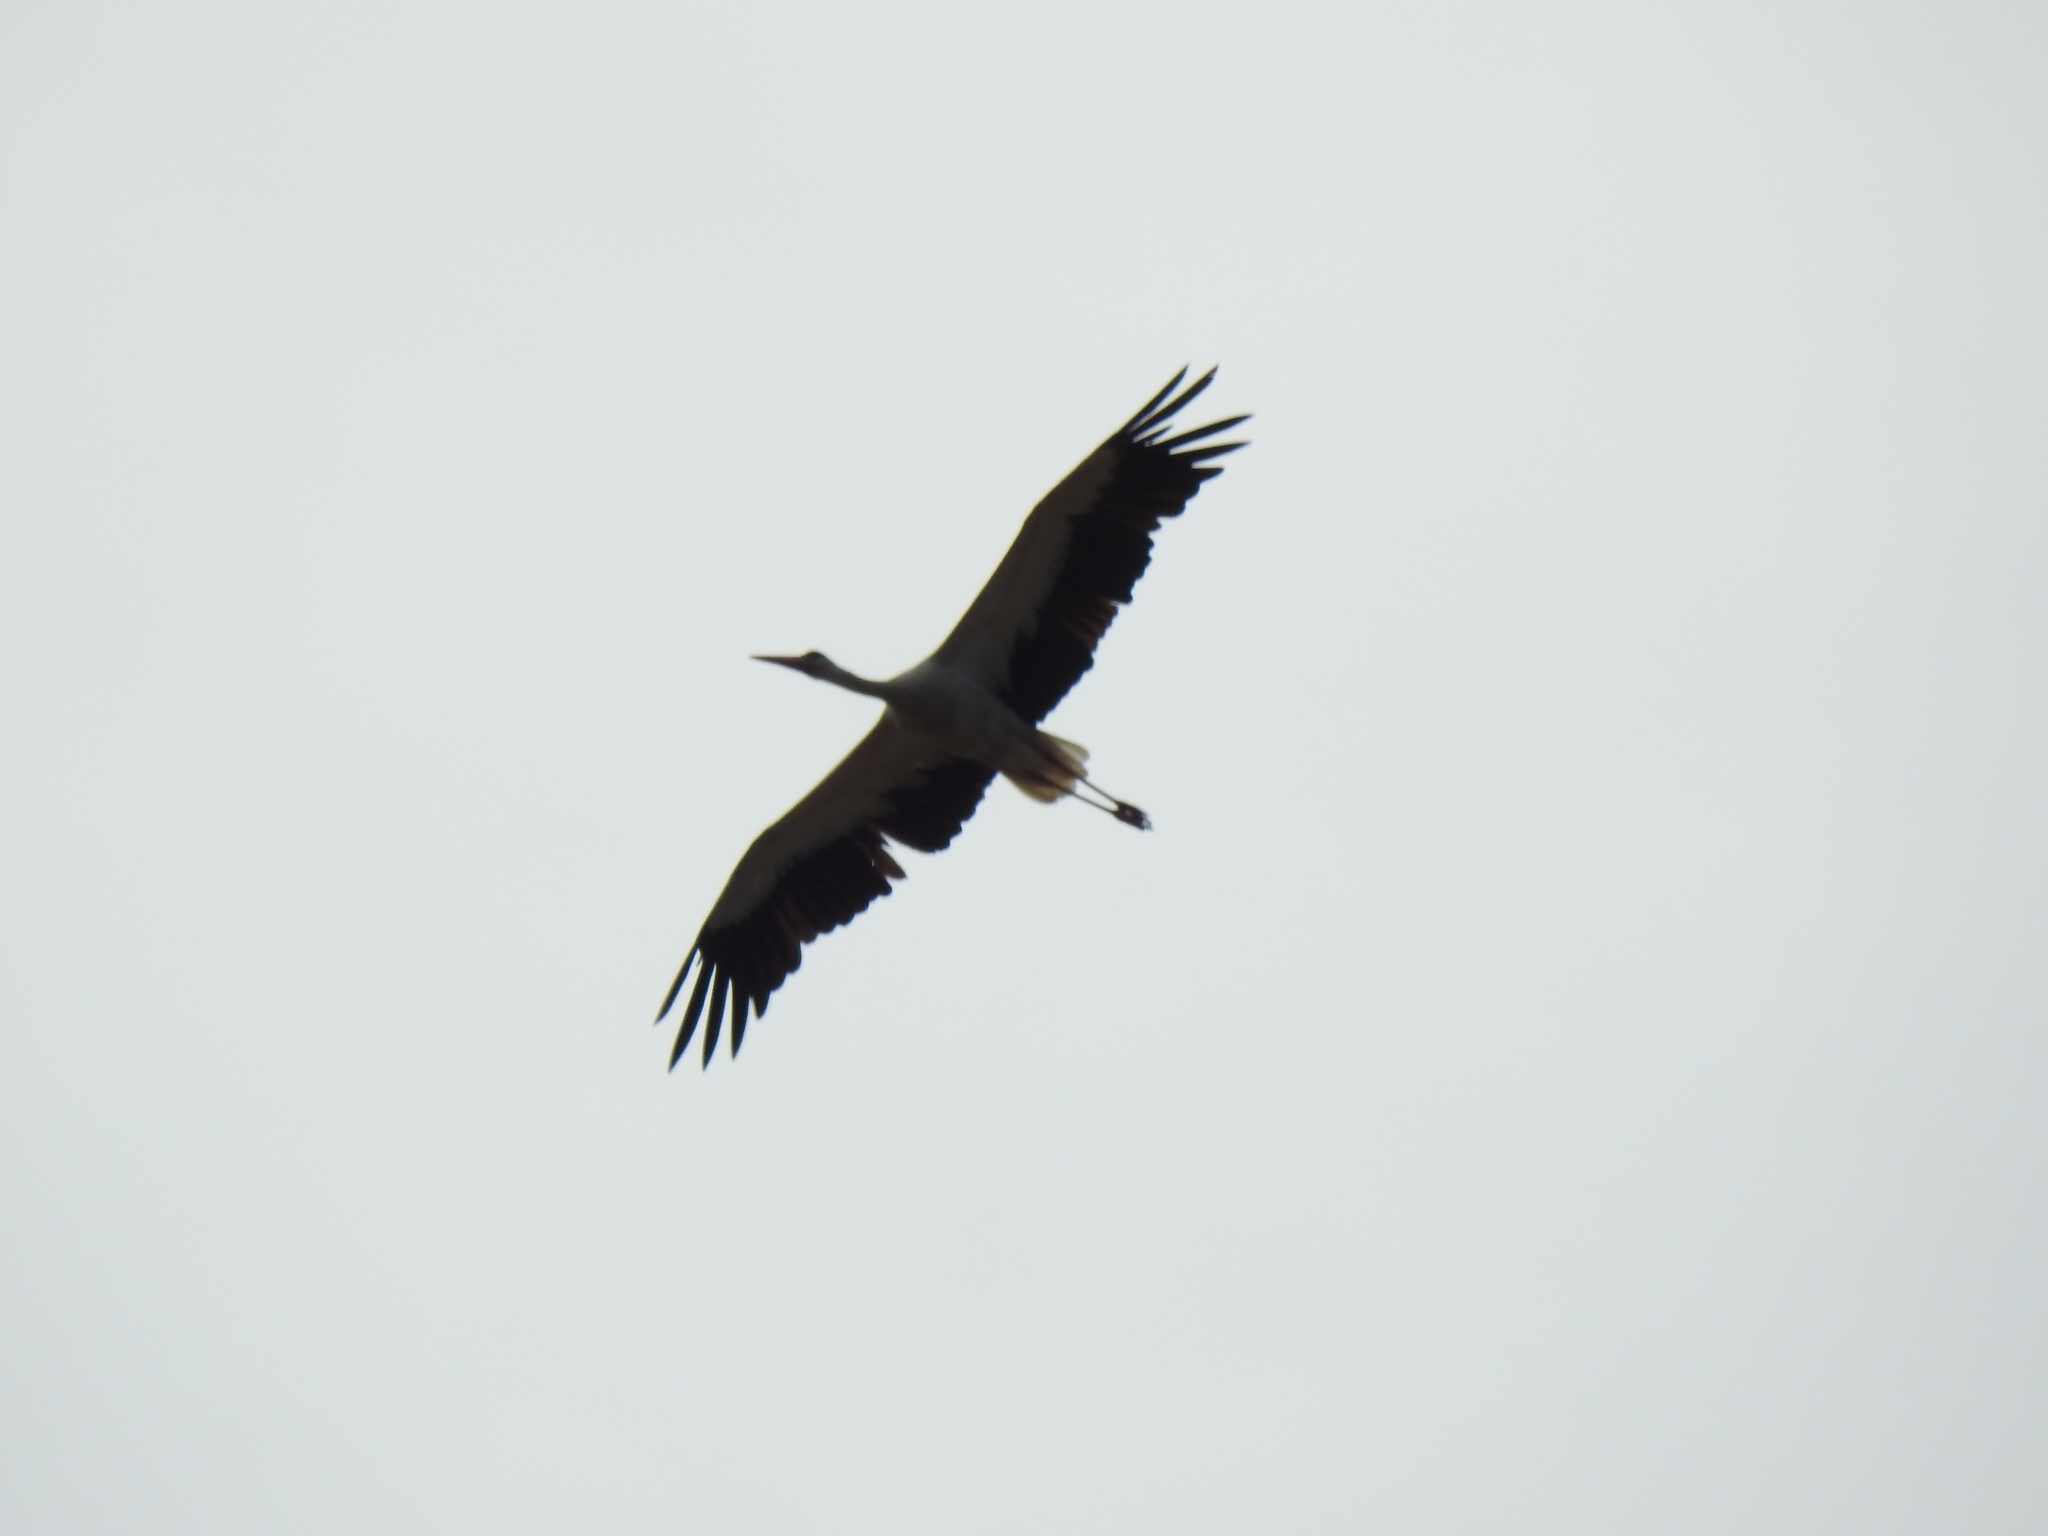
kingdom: Animalia
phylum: Chordata
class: Aves
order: Ciconiiformes
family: Ciconiidae
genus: Ciconia
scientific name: Ciconia ciconia
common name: White stork
